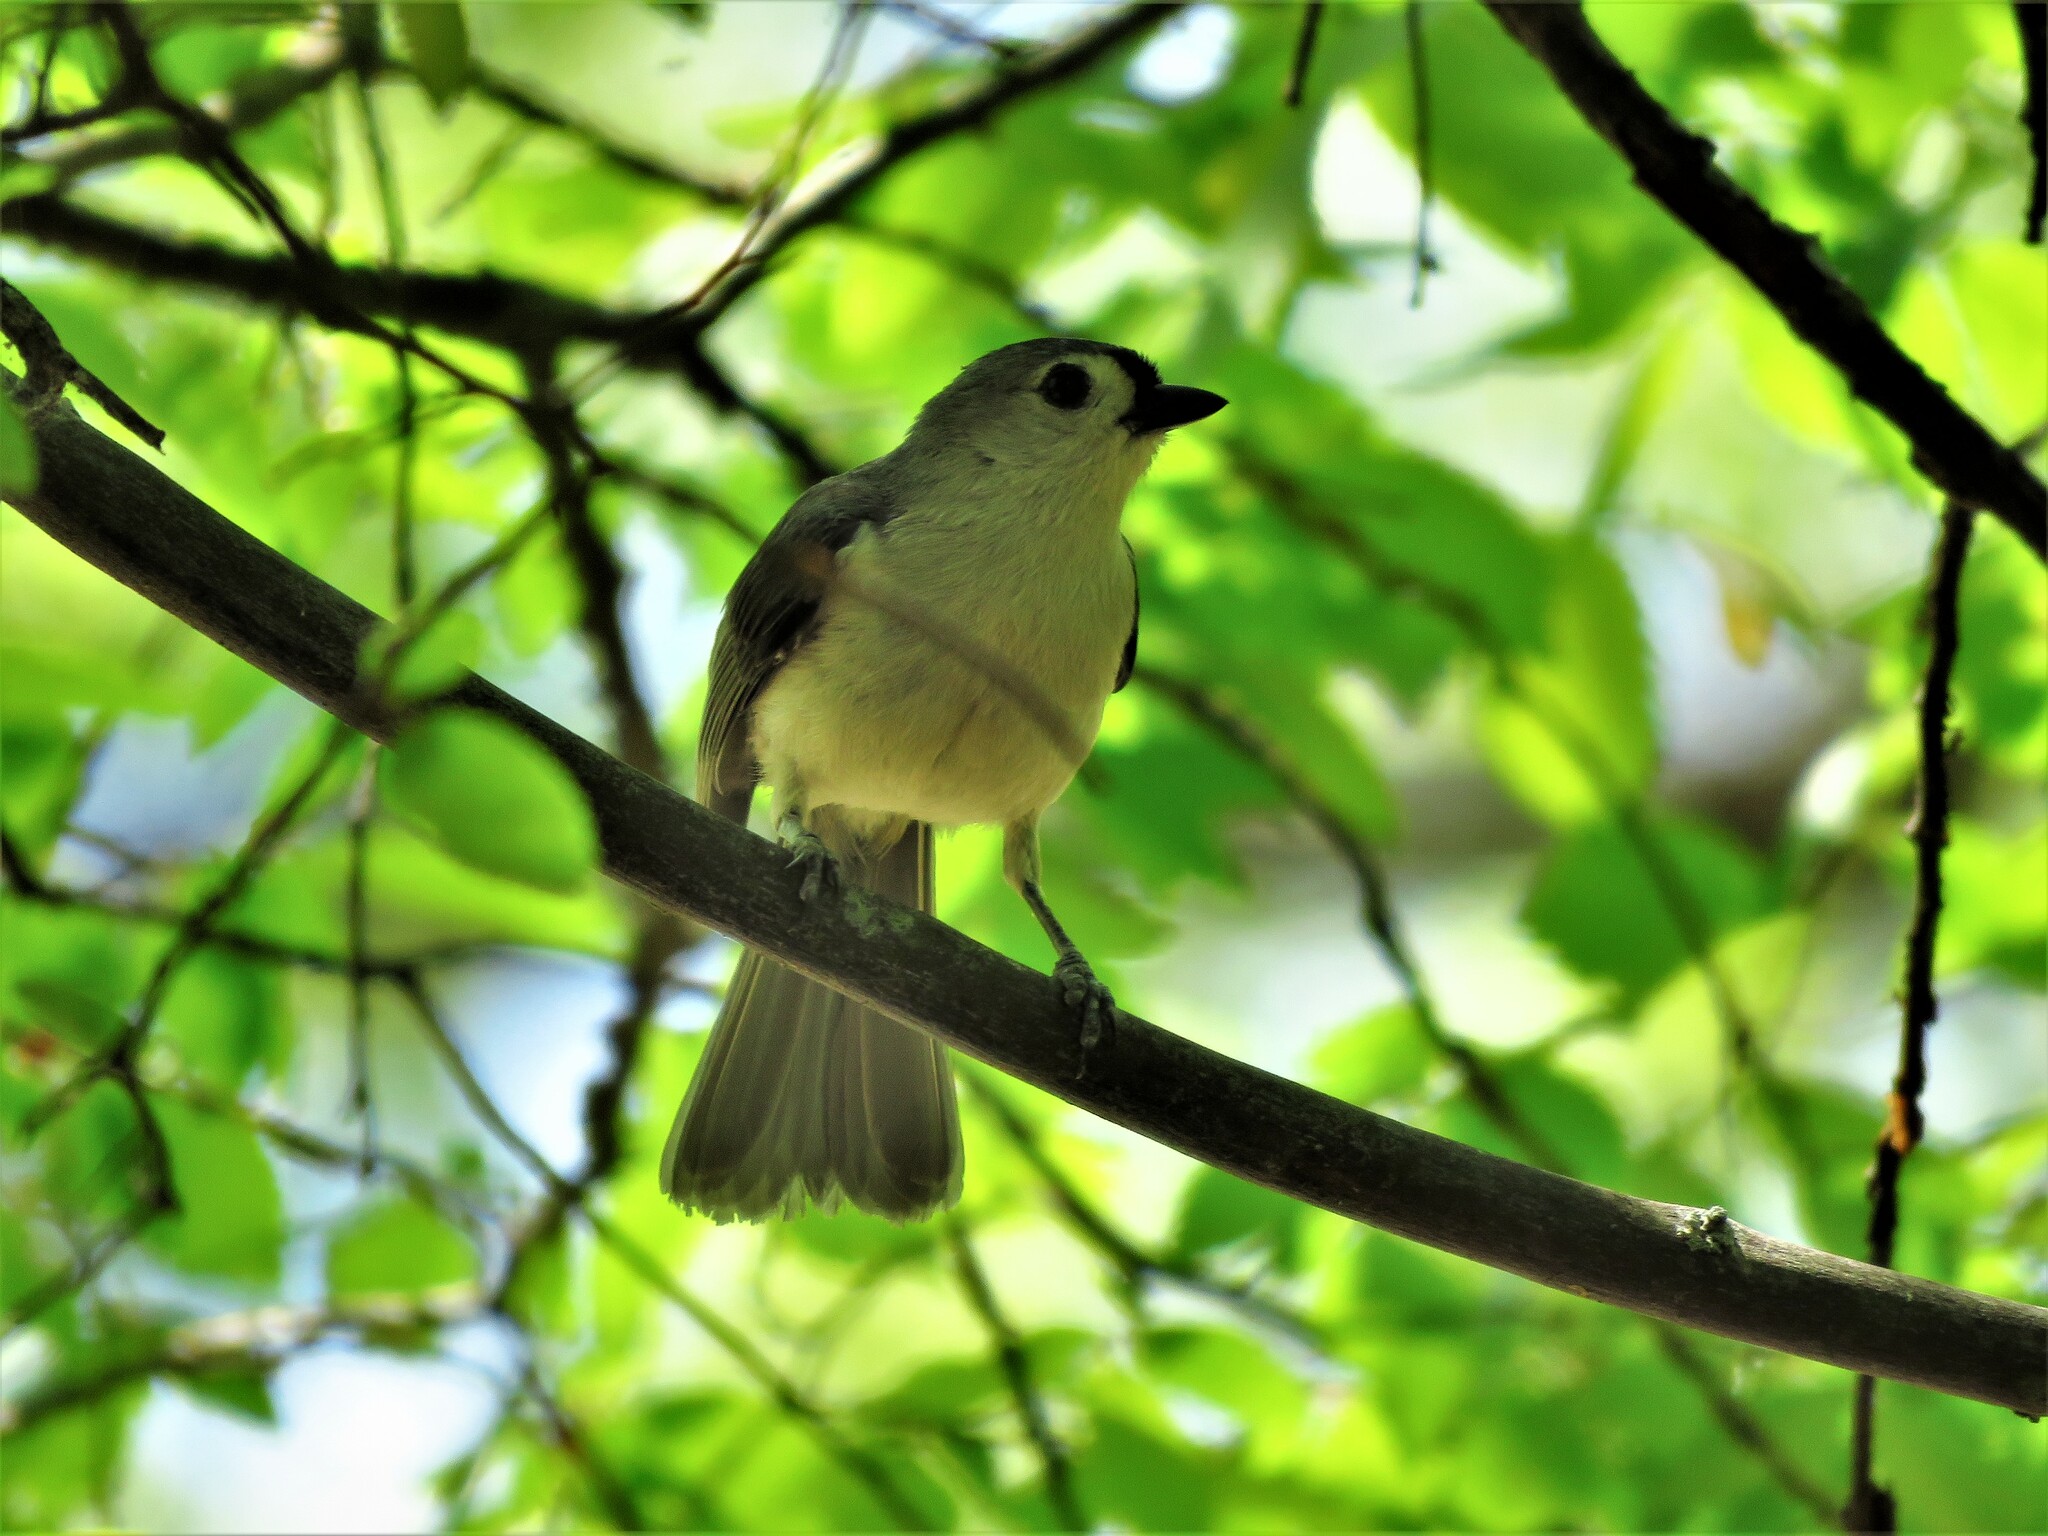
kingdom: Animalia
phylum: Chordata
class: Aves
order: Passeriformes
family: Paridae
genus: Baeolophus
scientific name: Baeolophus bicolor
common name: Tufted titmouse
